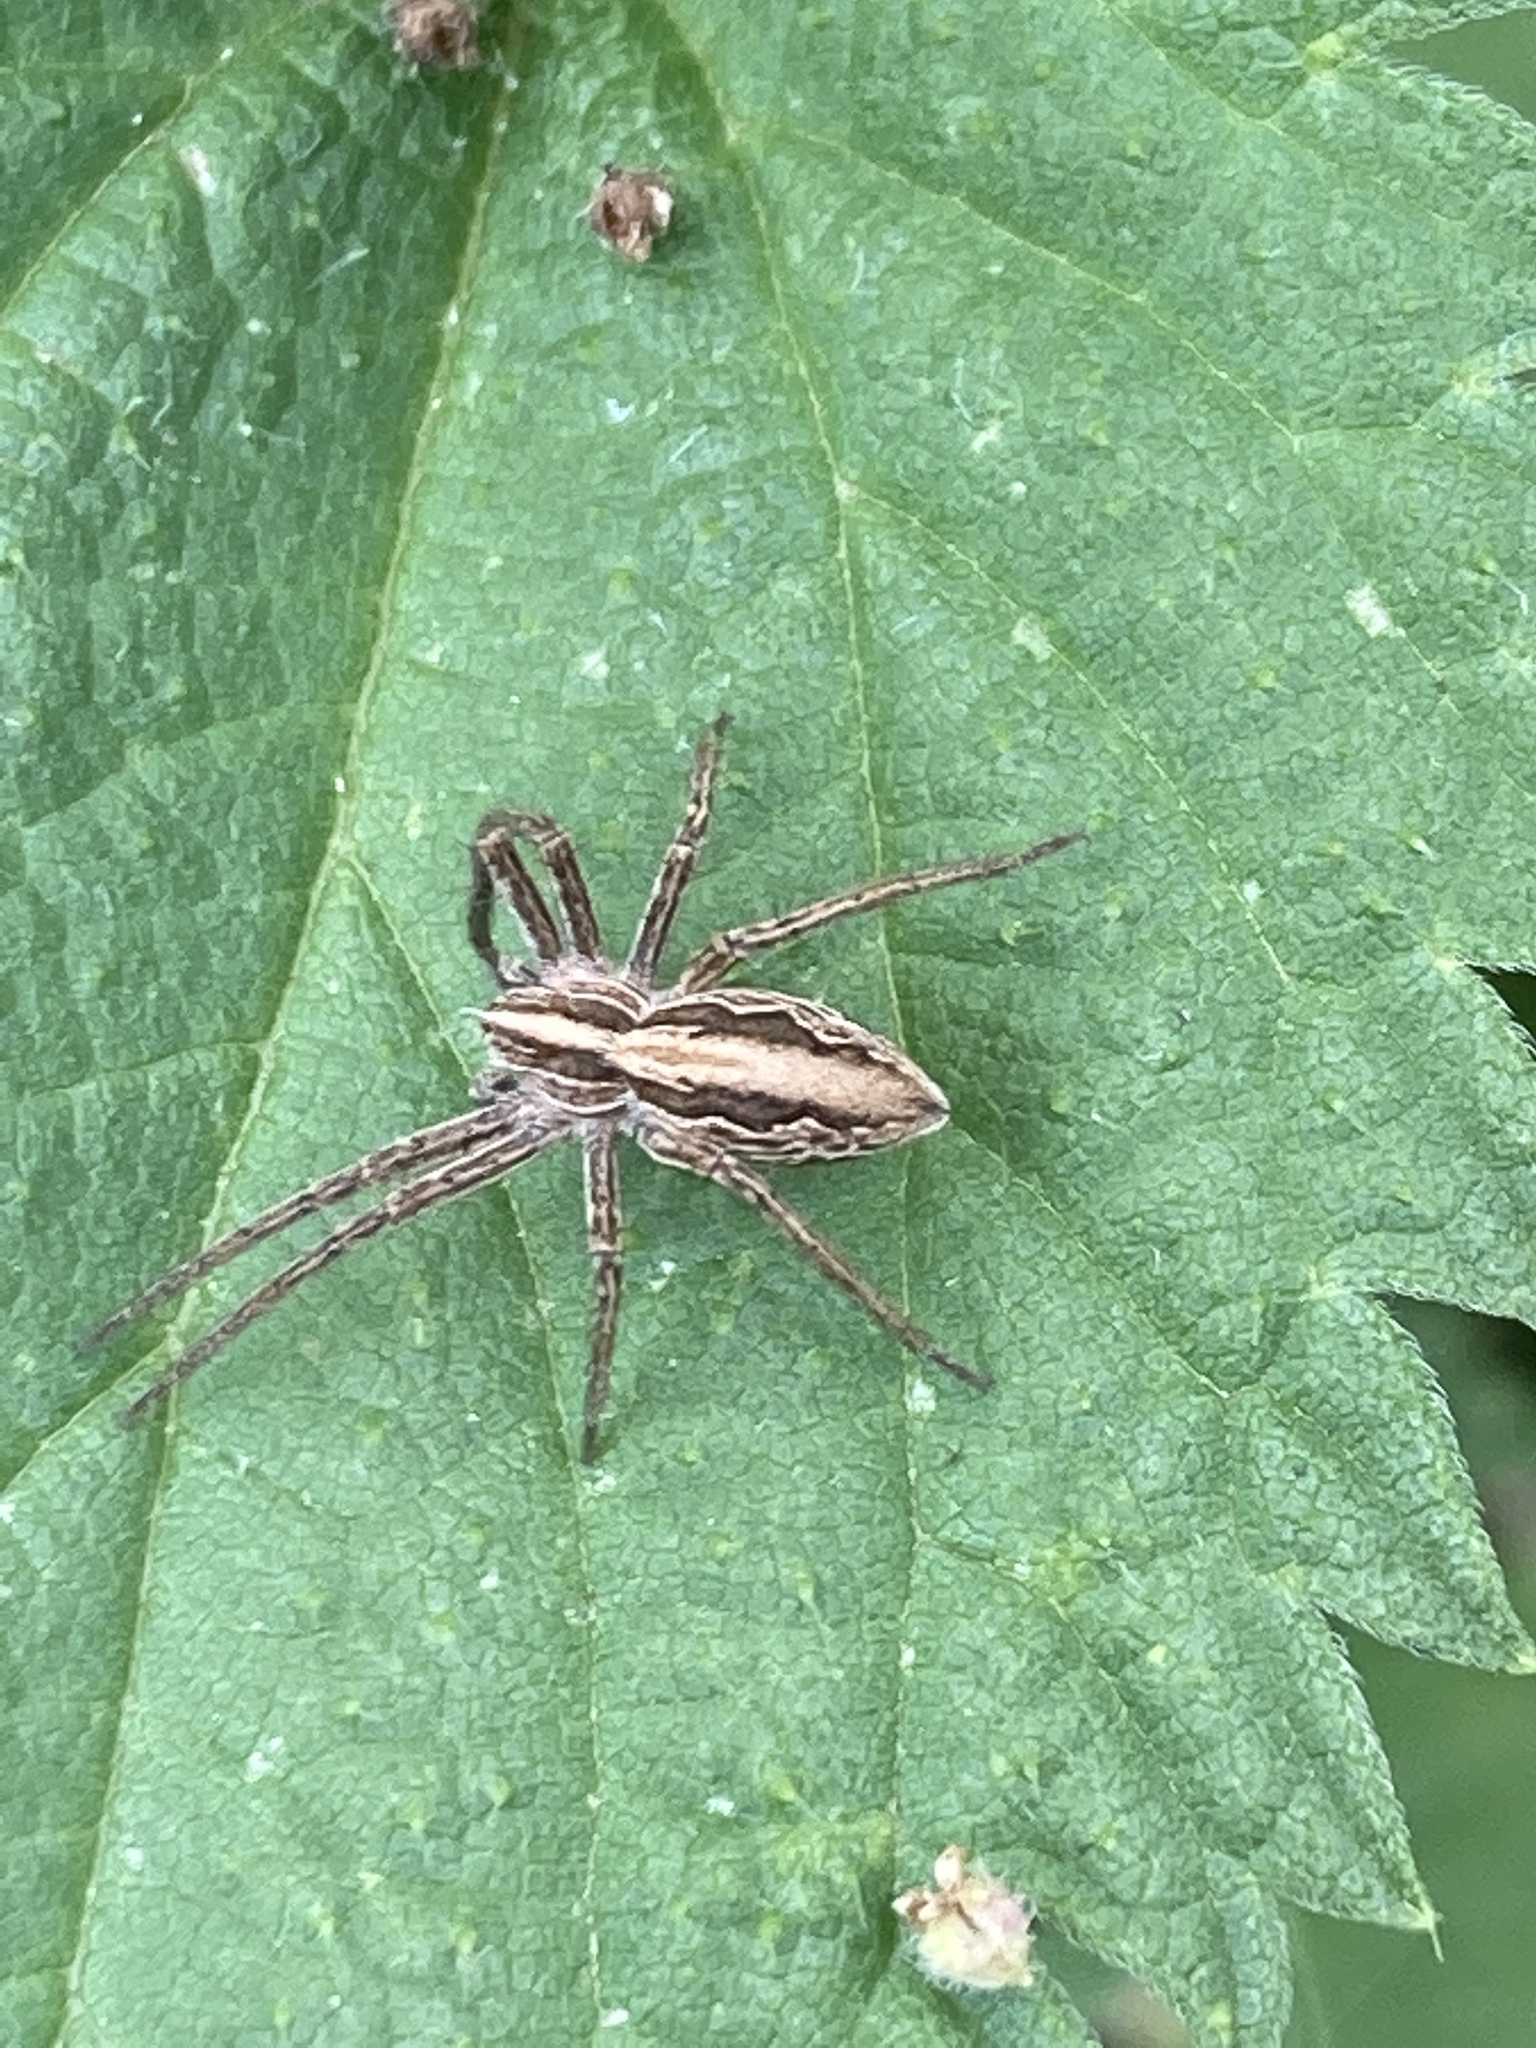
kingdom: Animalia
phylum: Arthropoda
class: Arachnida
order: Araneae
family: Pisauridae
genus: Pisaura
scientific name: Pisaura mirabilis
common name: Tent spider
